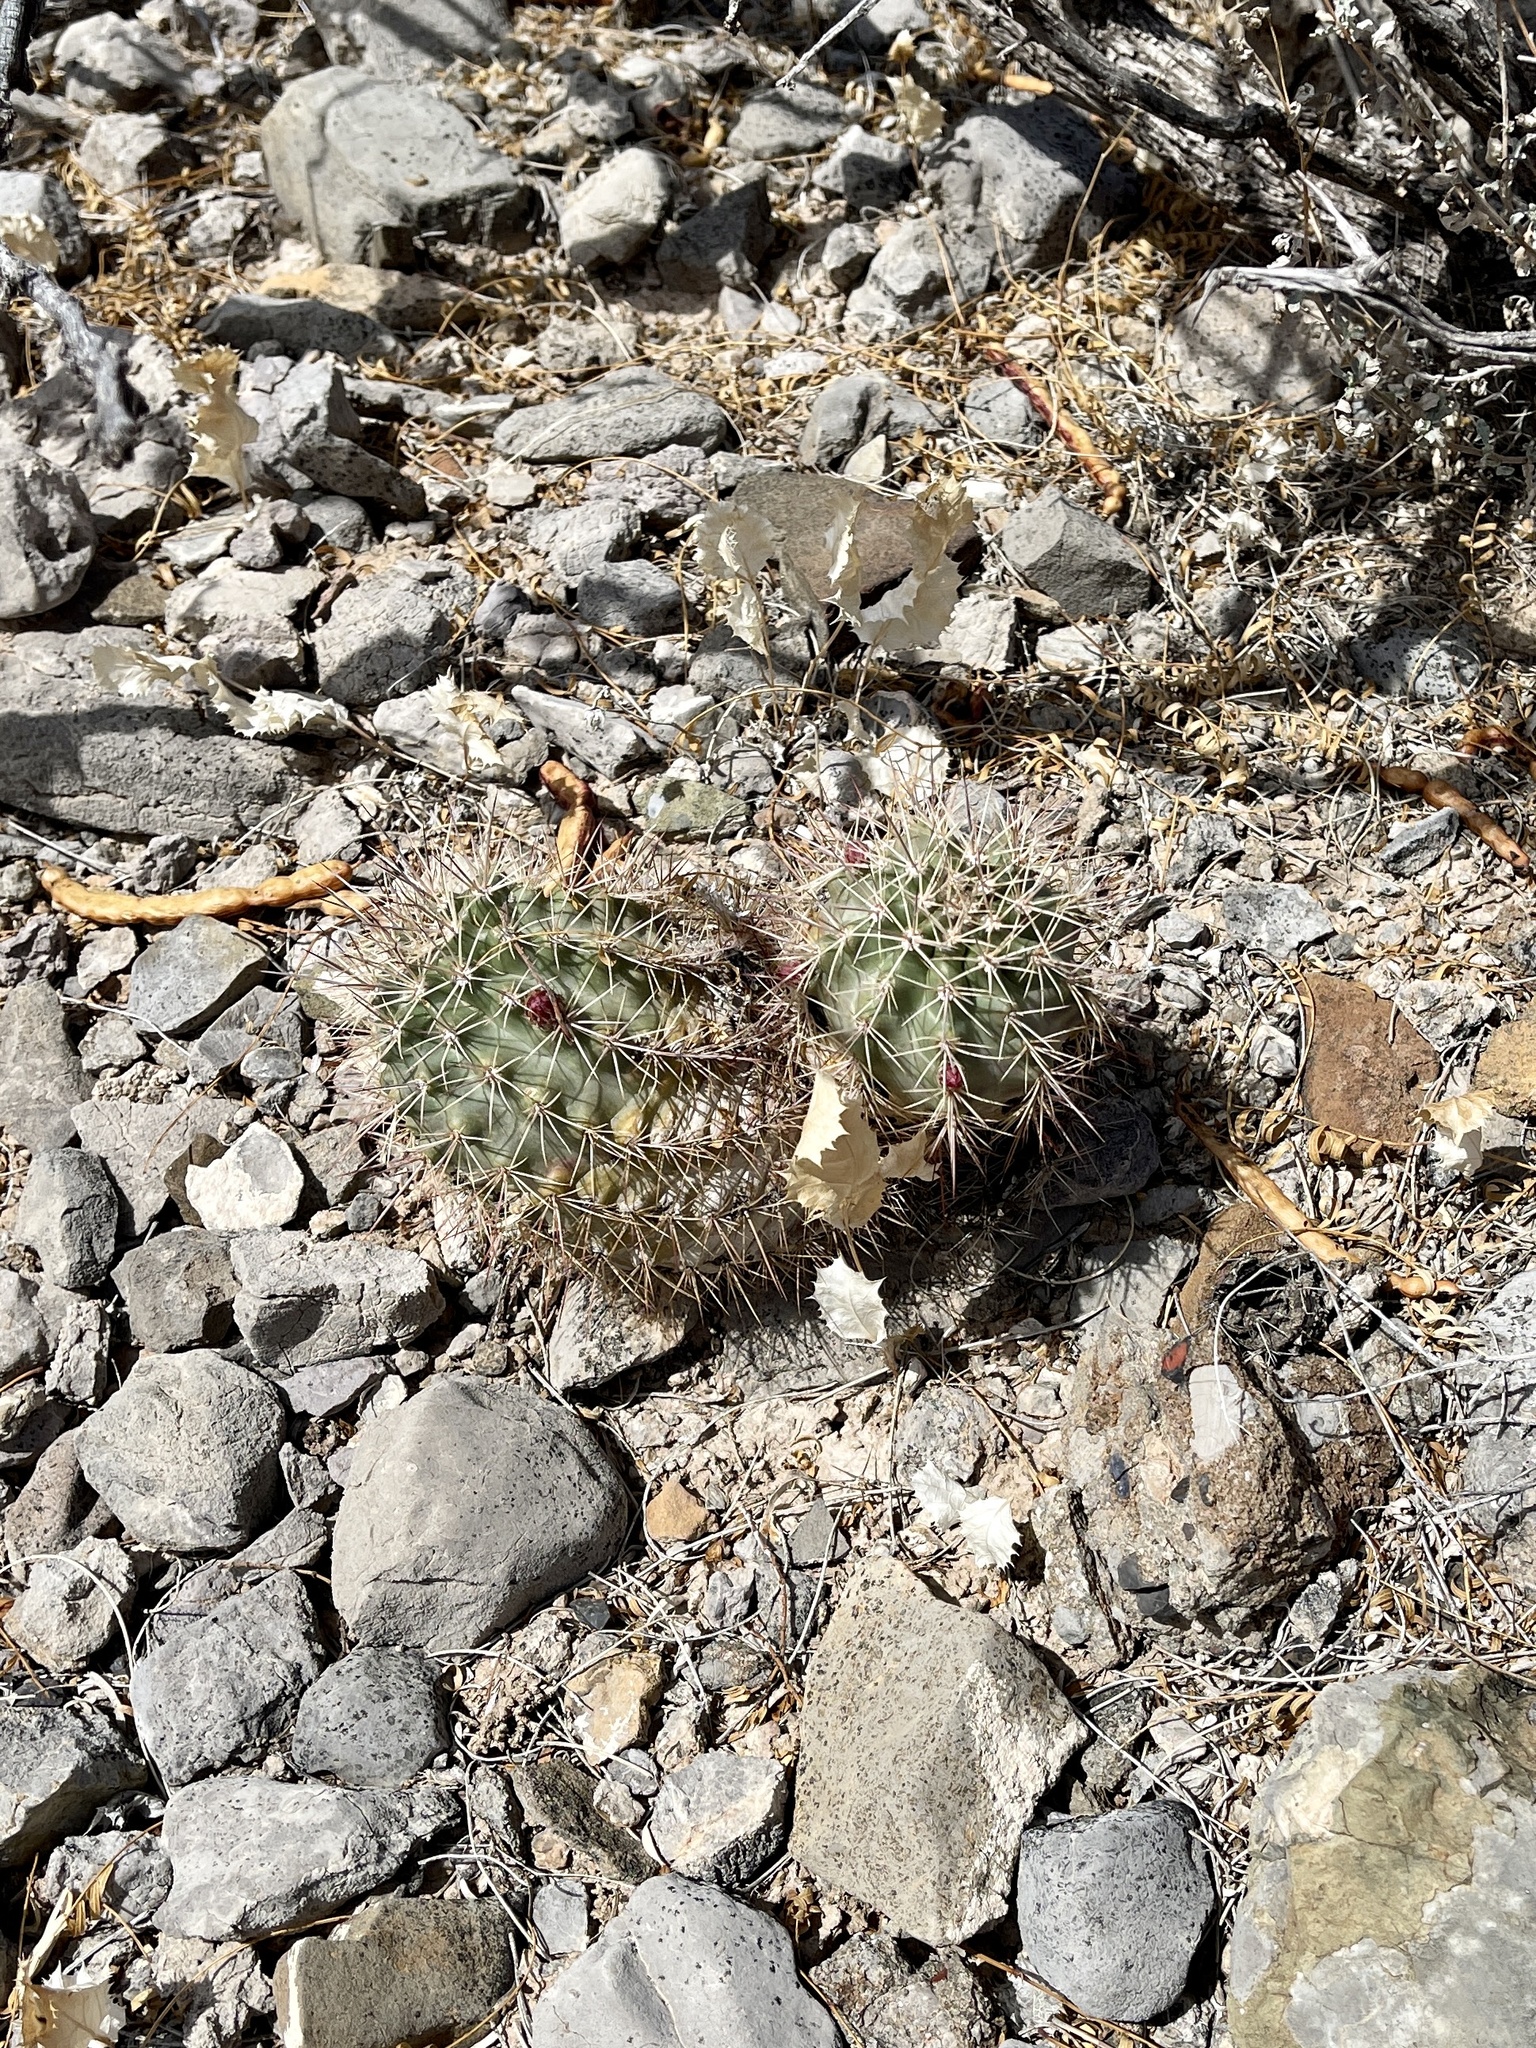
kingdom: Plantae
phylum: Tracheophyta
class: Magnoliopsida
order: Caryophyllales
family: Cactaceae
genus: Echinocereus
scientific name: Echinocereus coccineus
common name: Scarlet hedgehog cactus
